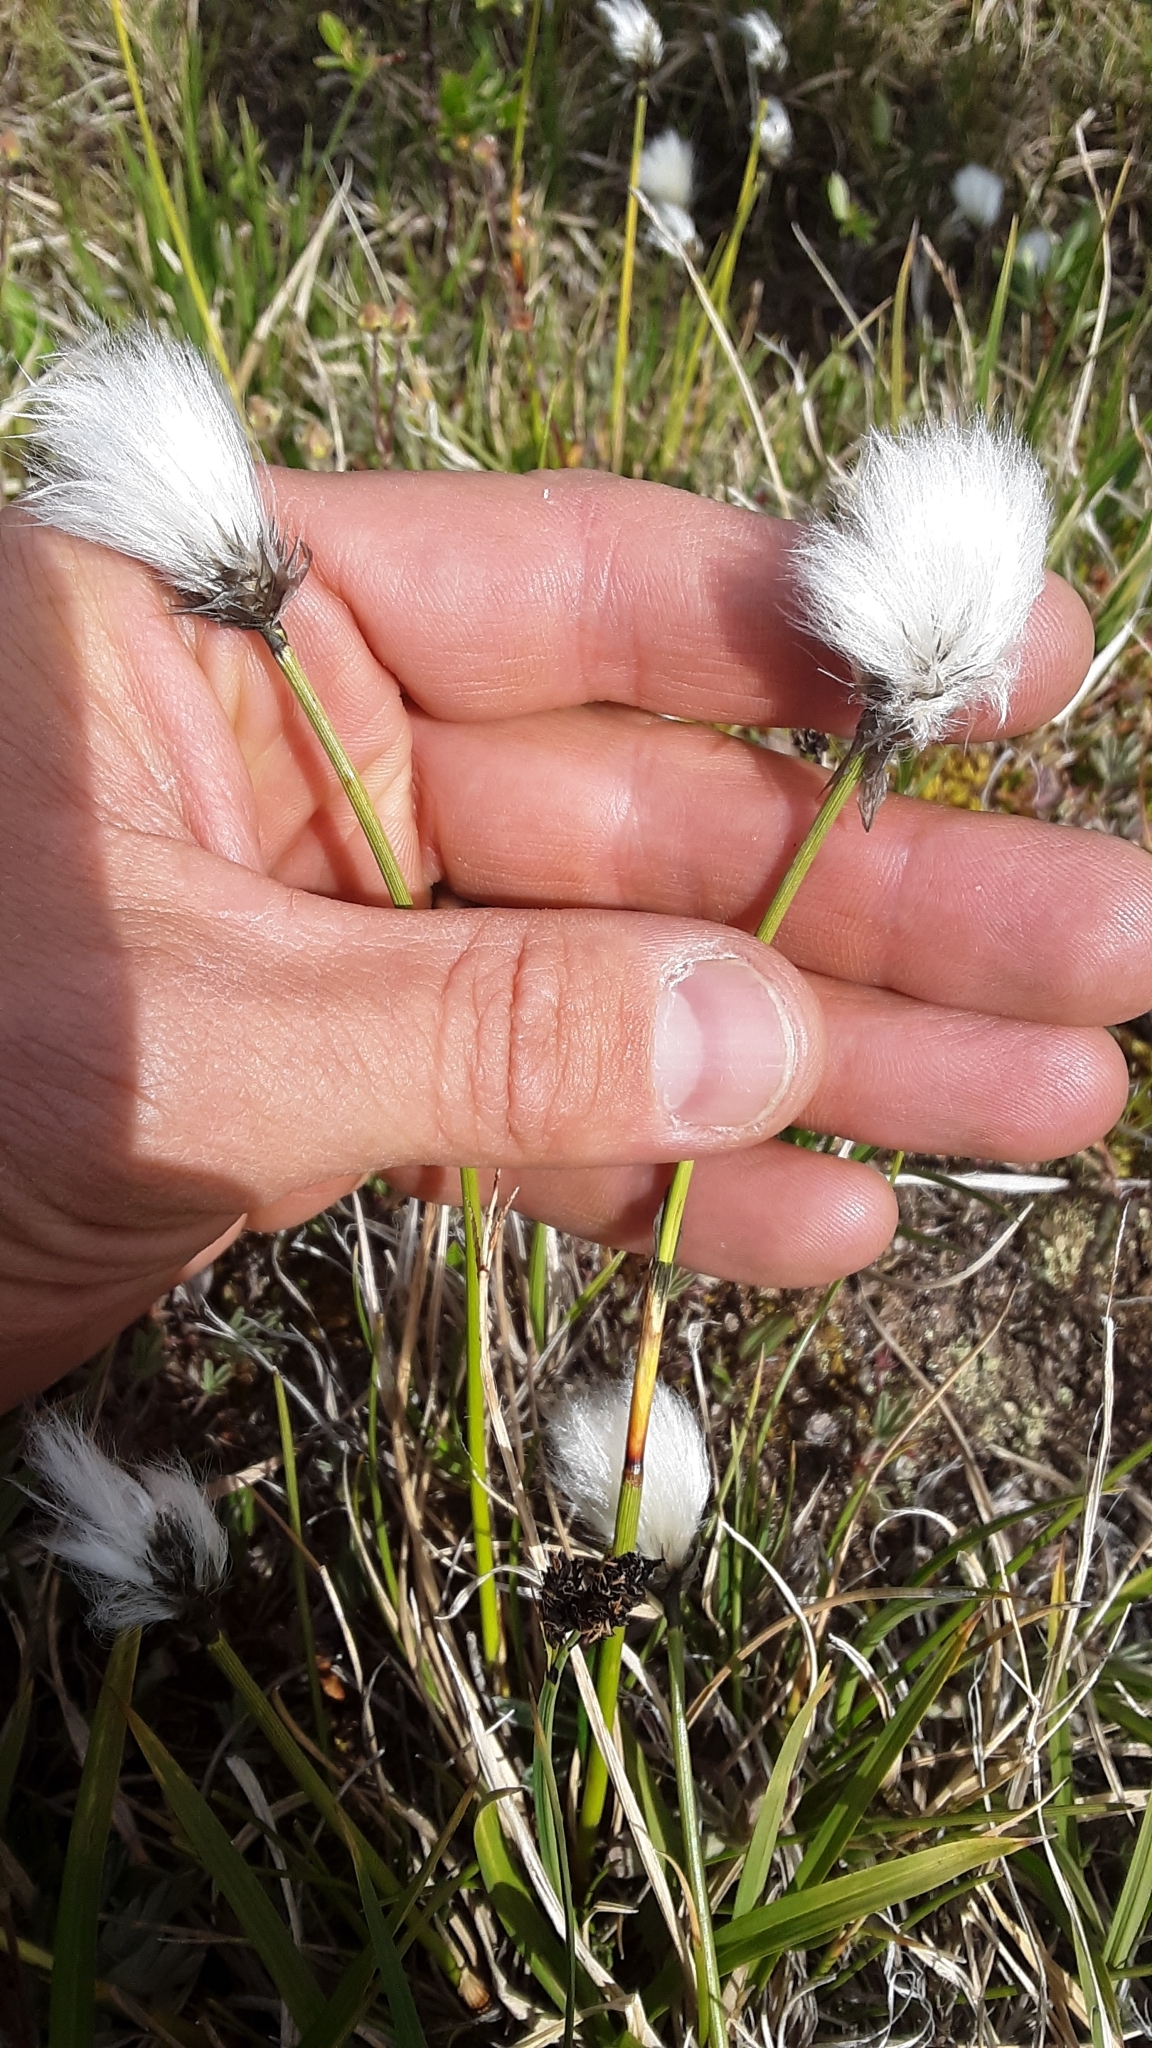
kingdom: Plantae
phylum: Tracheophyta
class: Liliopsida
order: Poales
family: Cyperaceae
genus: Eriophorum
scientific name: Eriophorum callitrix
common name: Arctic cottongrass
